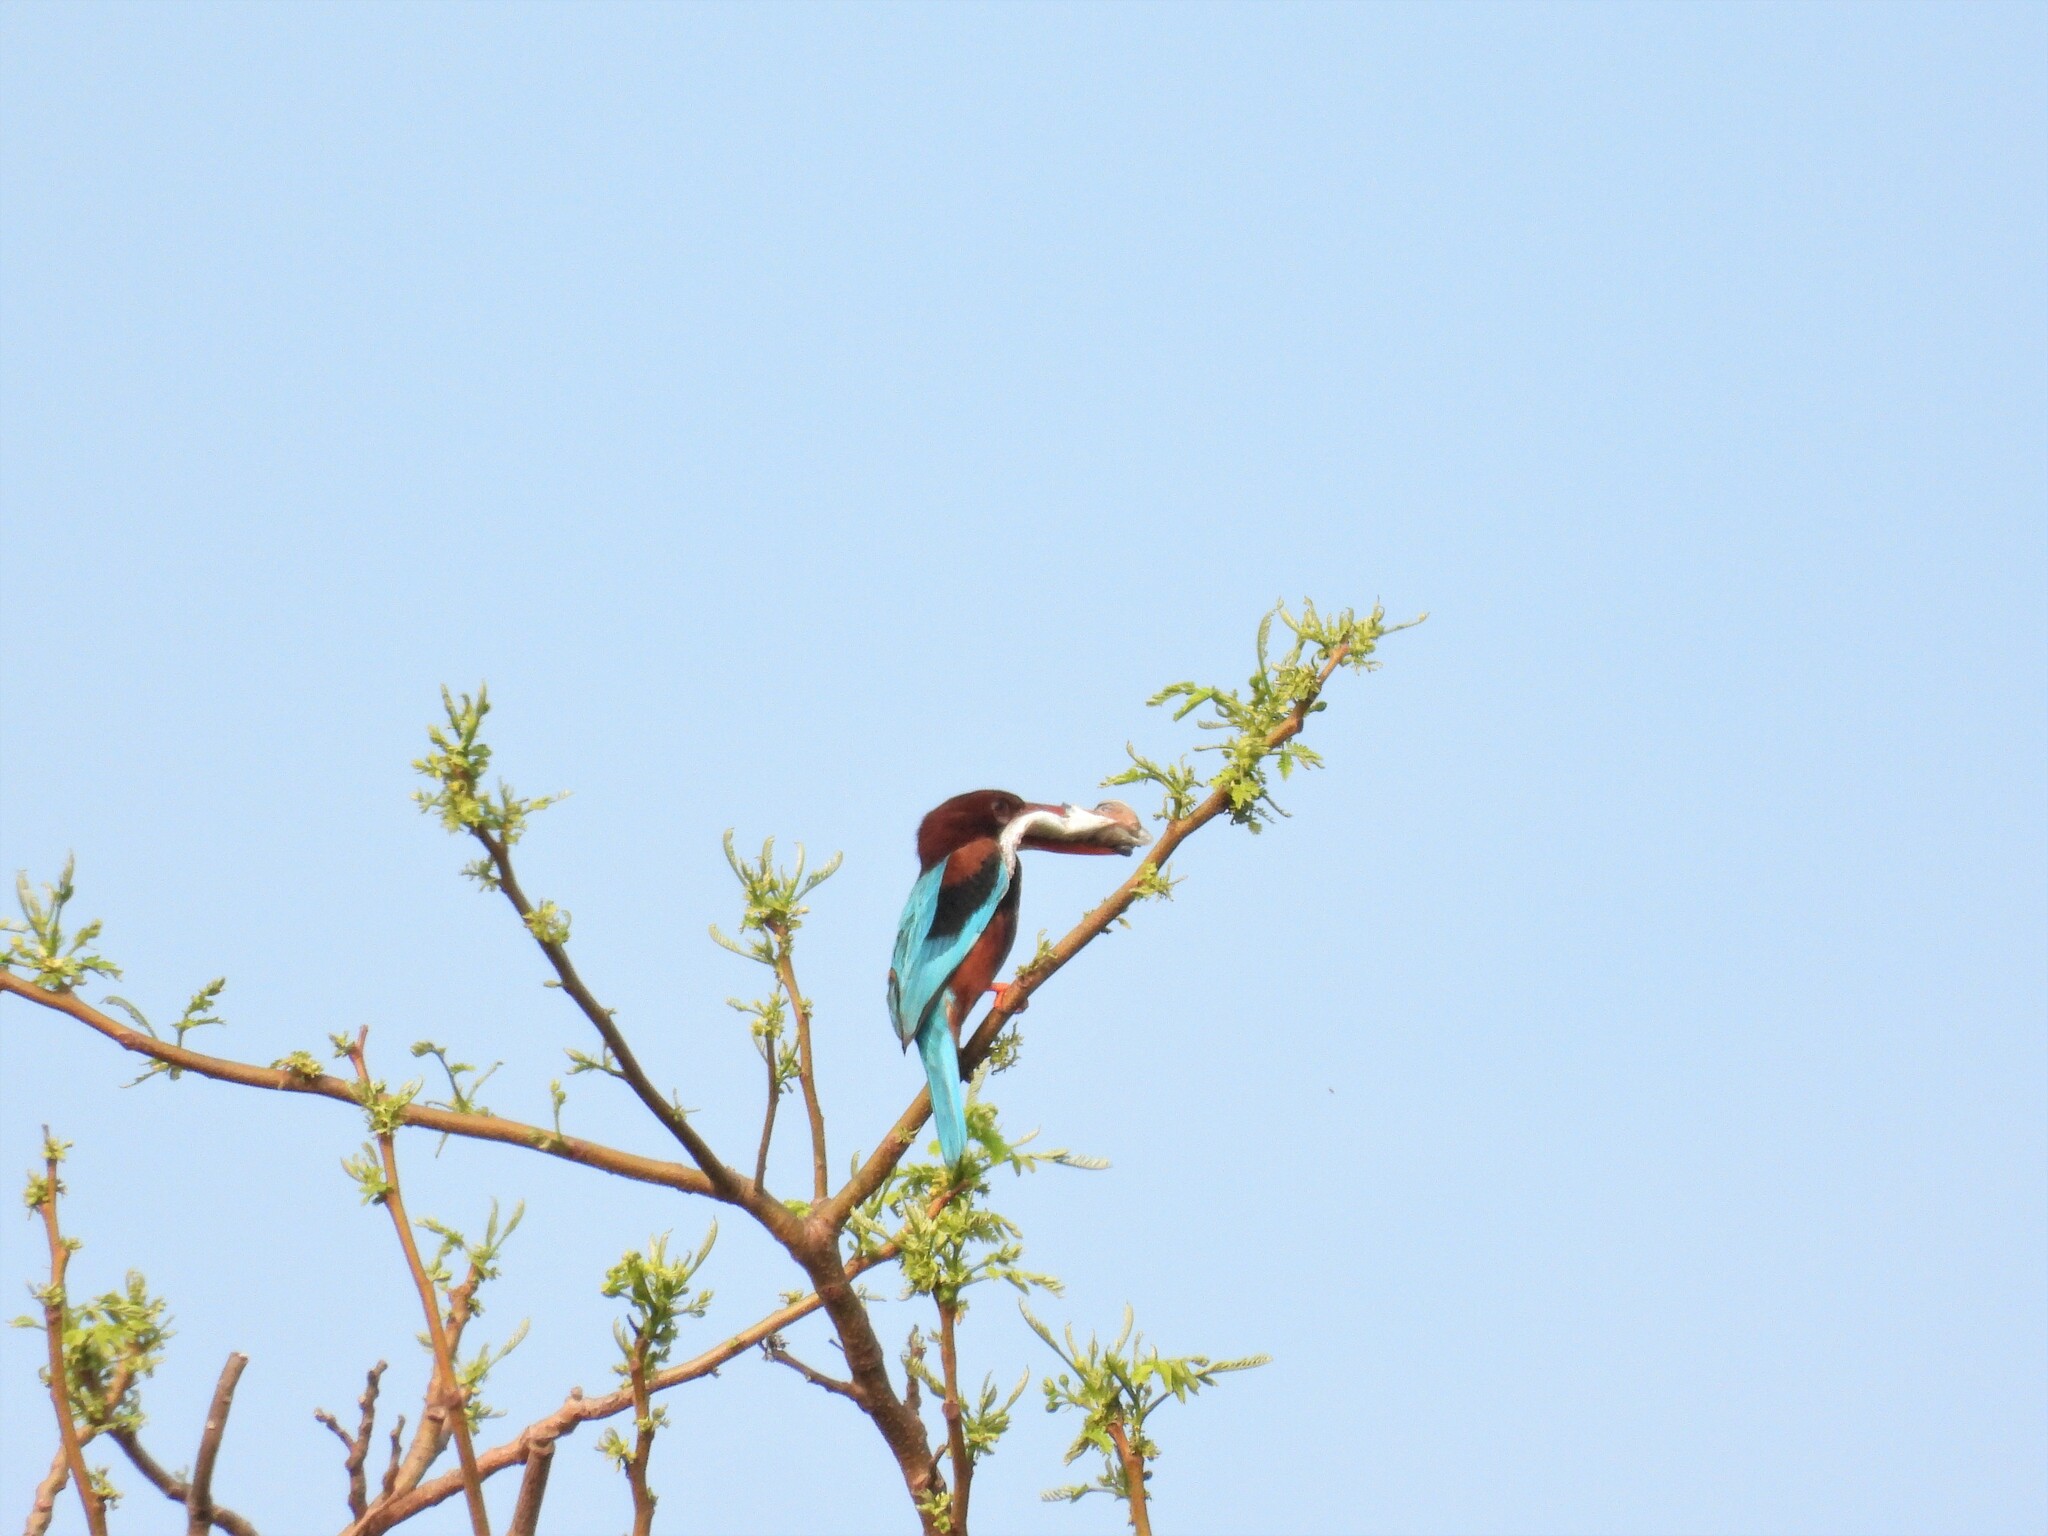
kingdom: Animalia
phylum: Chordata
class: Aves
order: Coraciiformes
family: Alcedinidae
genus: Halcyon
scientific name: Halcyon smyrnensis
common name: White-throated kingfisher
